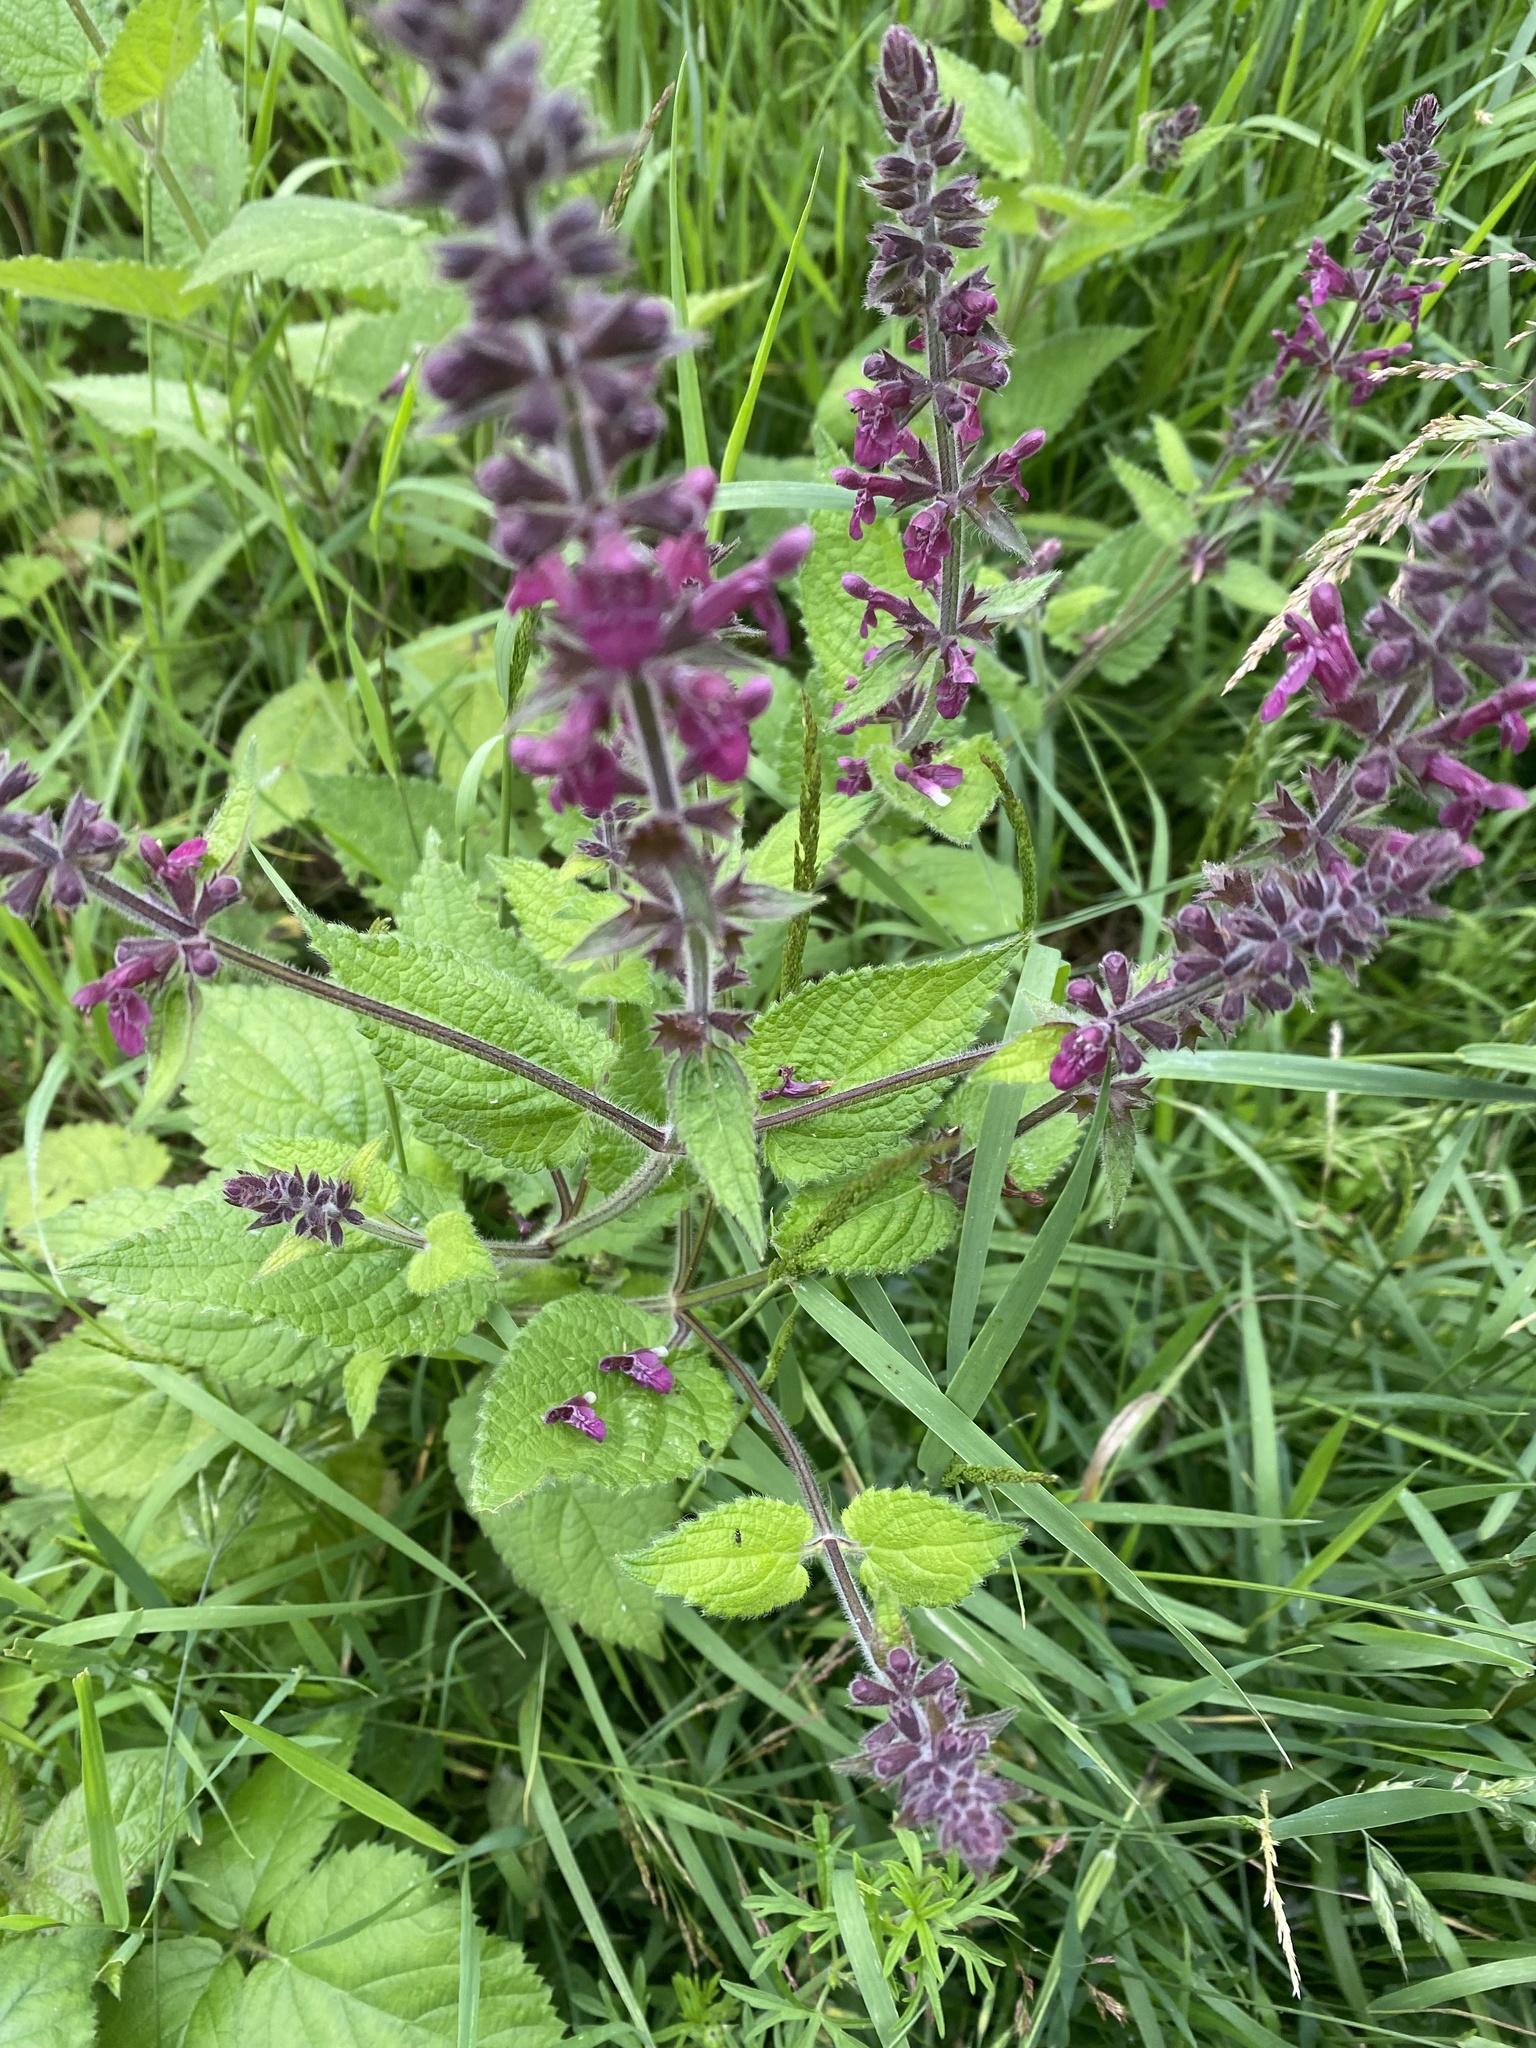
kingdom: Plantae
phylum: Tracheophyta
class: Magnoliopsida
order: Lamiales
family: Lamiaceae
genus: Stachys
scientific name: Stachys sylvatica
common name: Hedge woundwort
